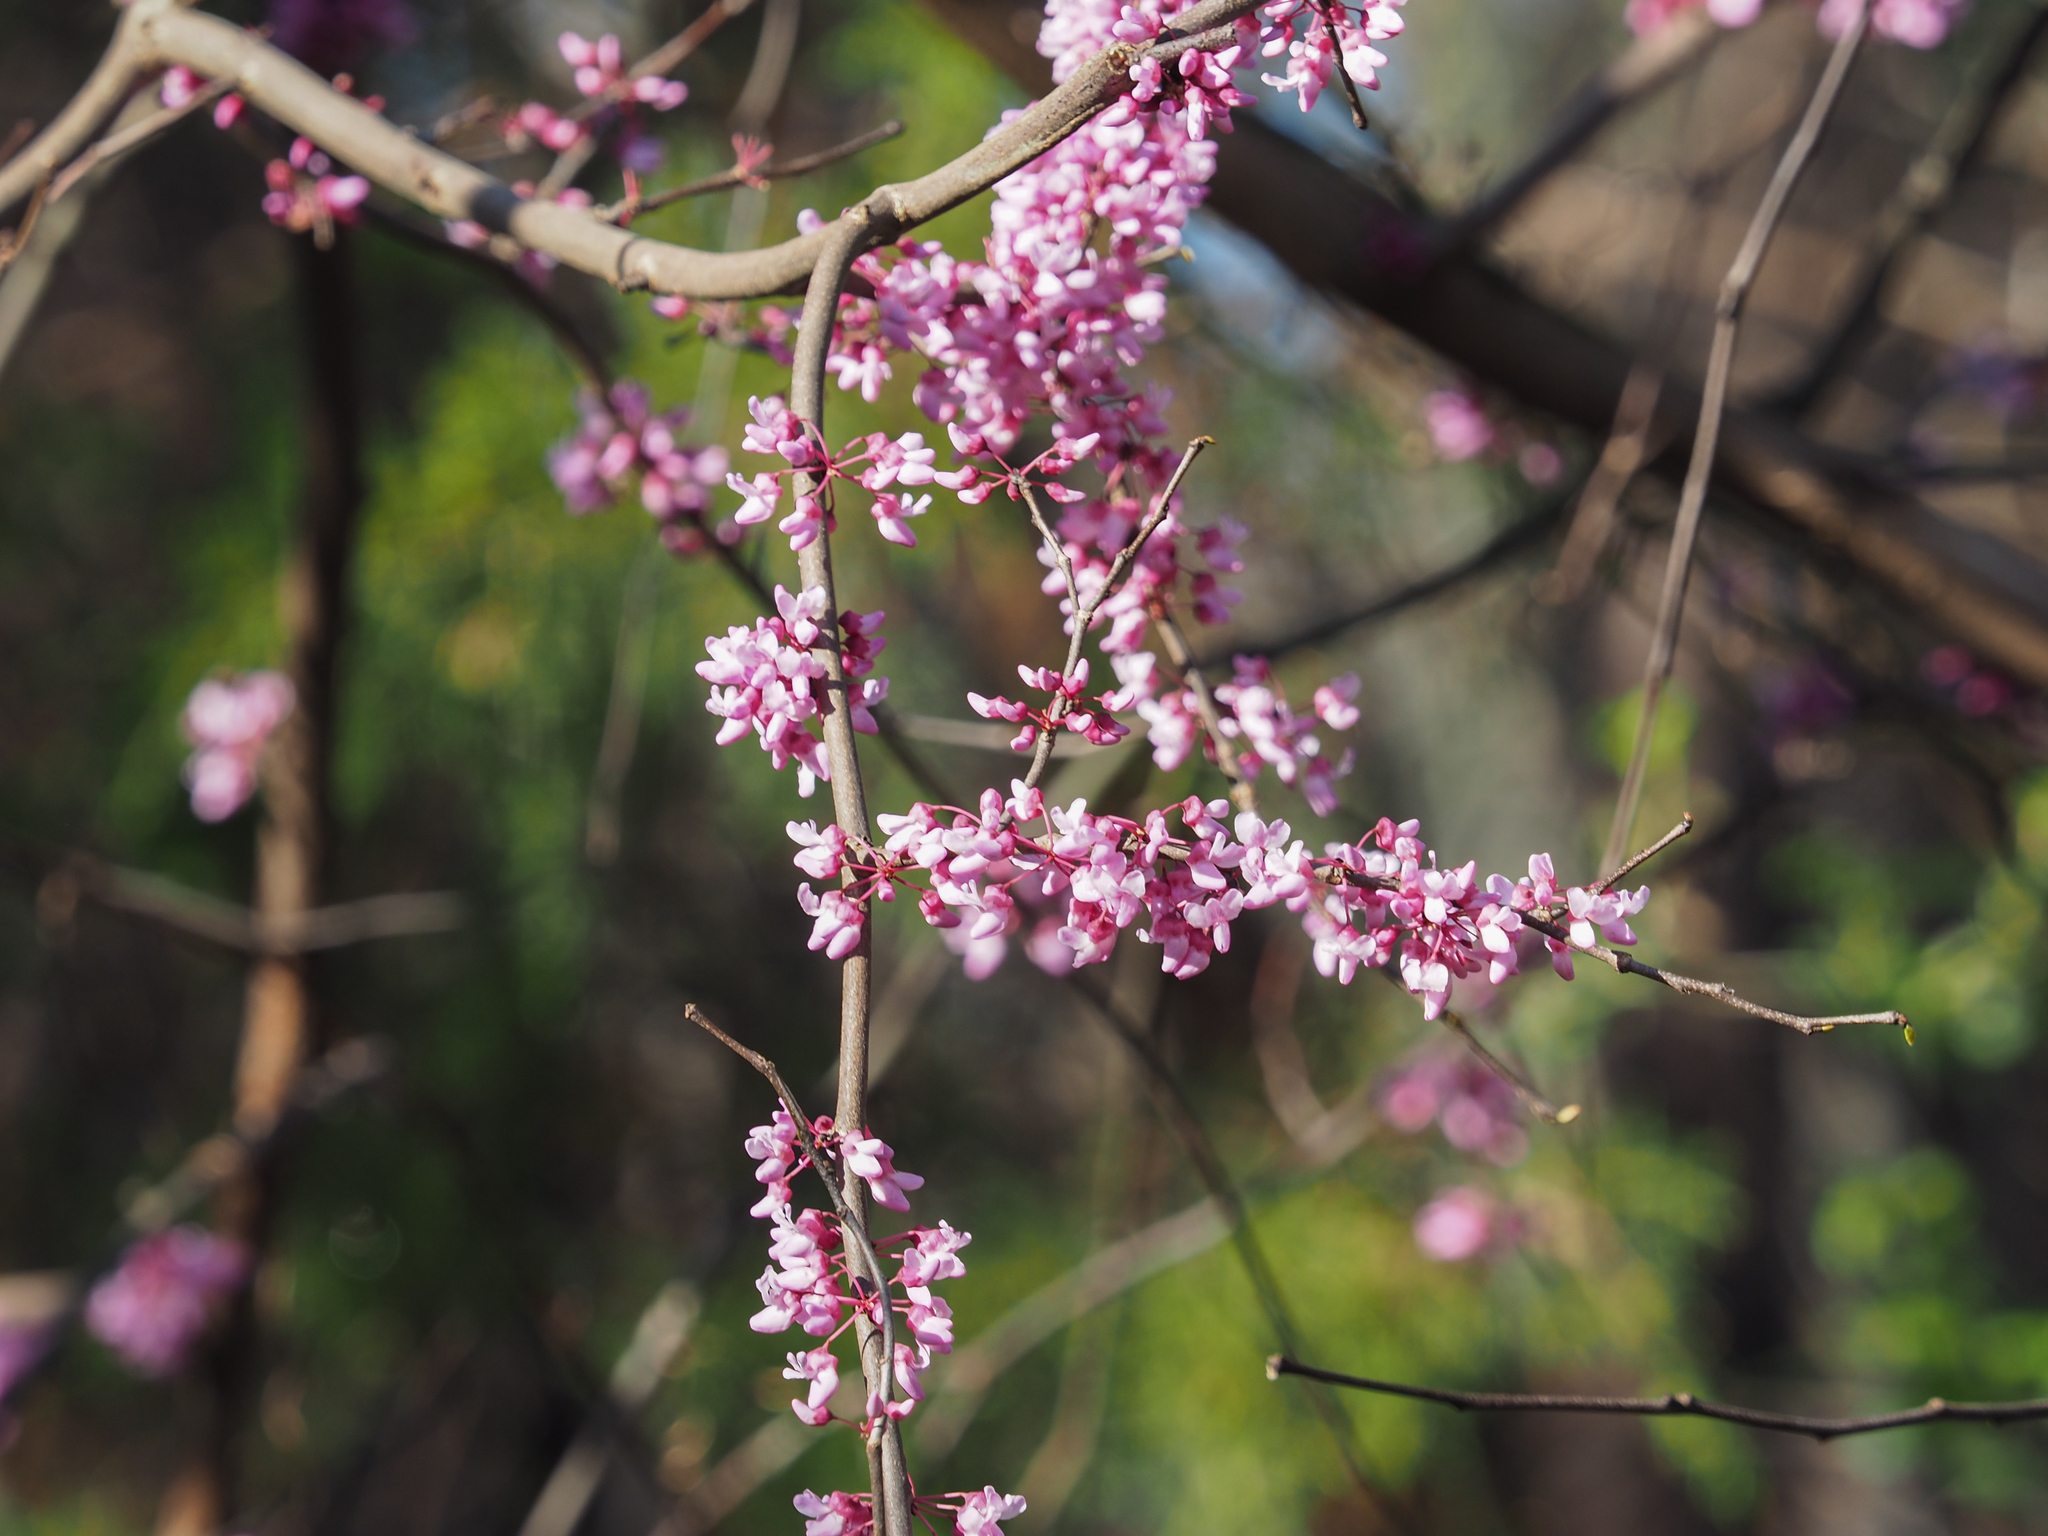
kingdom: Plantae
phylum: Tracheophyta
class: Magnoliopsida
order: Fabales
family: Fabaceae
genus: Cercis
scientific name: Cercis canadensis
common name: Eastern redbud
